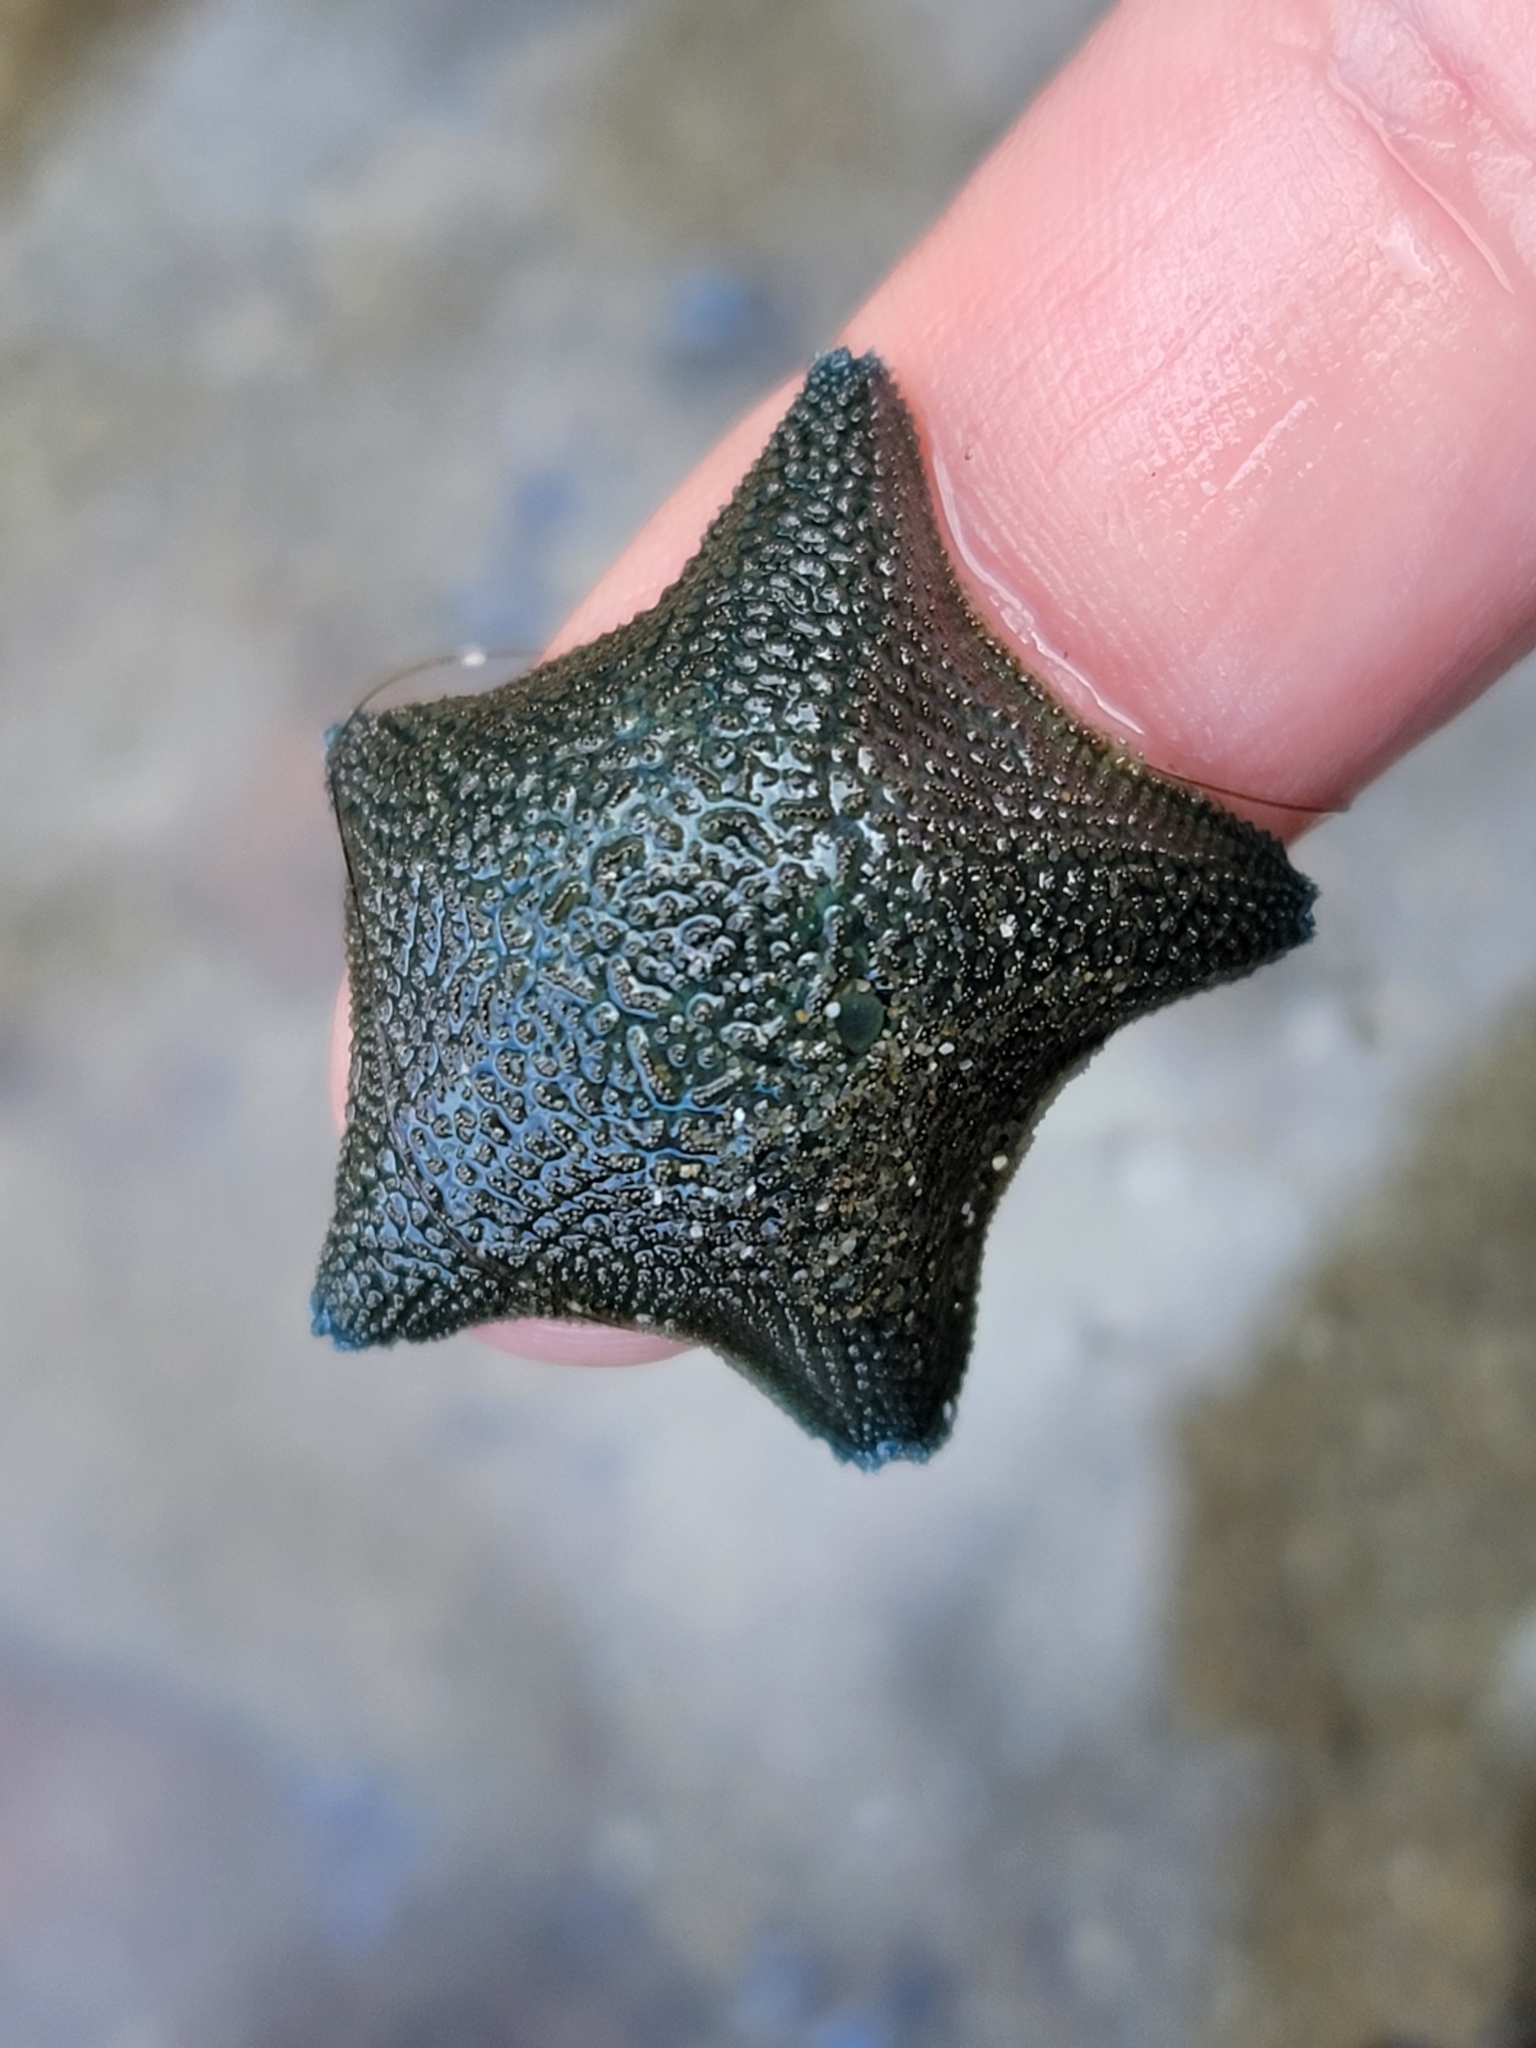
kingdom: Animalia
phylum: Echinodermata
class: Asteroidea
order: Valvatida
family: Asterinidae
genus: Patiriella
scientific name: Patiriella regularis
